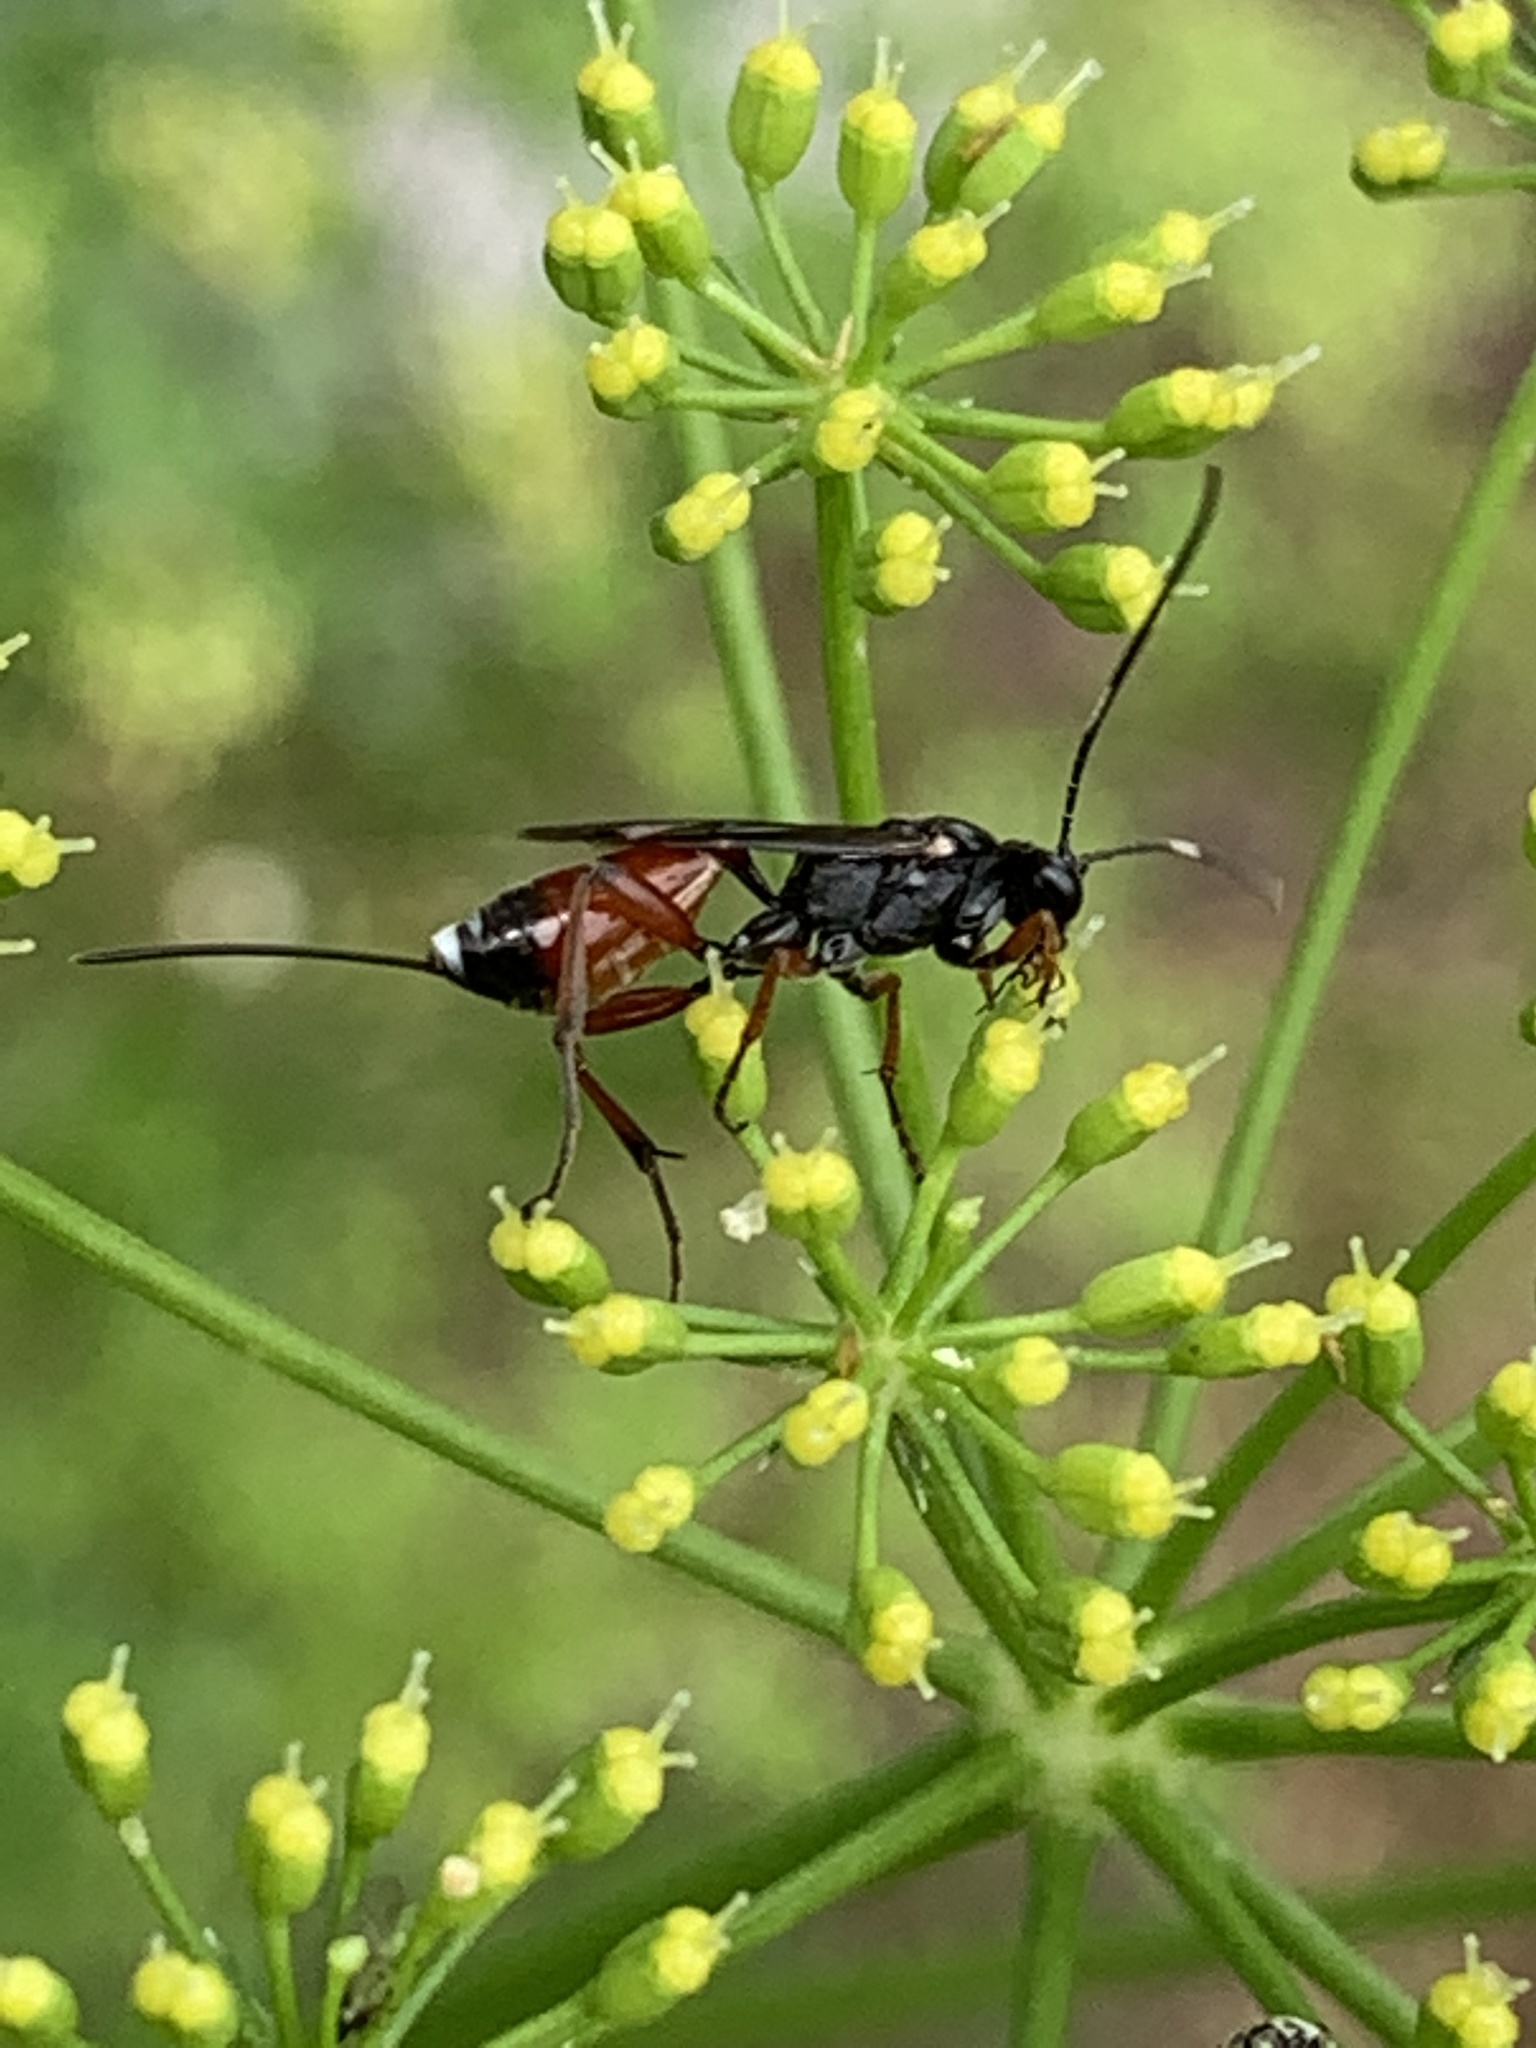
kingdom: Animalia
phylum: Arthropoda
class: Insecta
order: Hymenoptera
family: Ichneumonidae
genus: Aritranis
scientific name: Aritranis director
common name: Ichneumonid wasp
